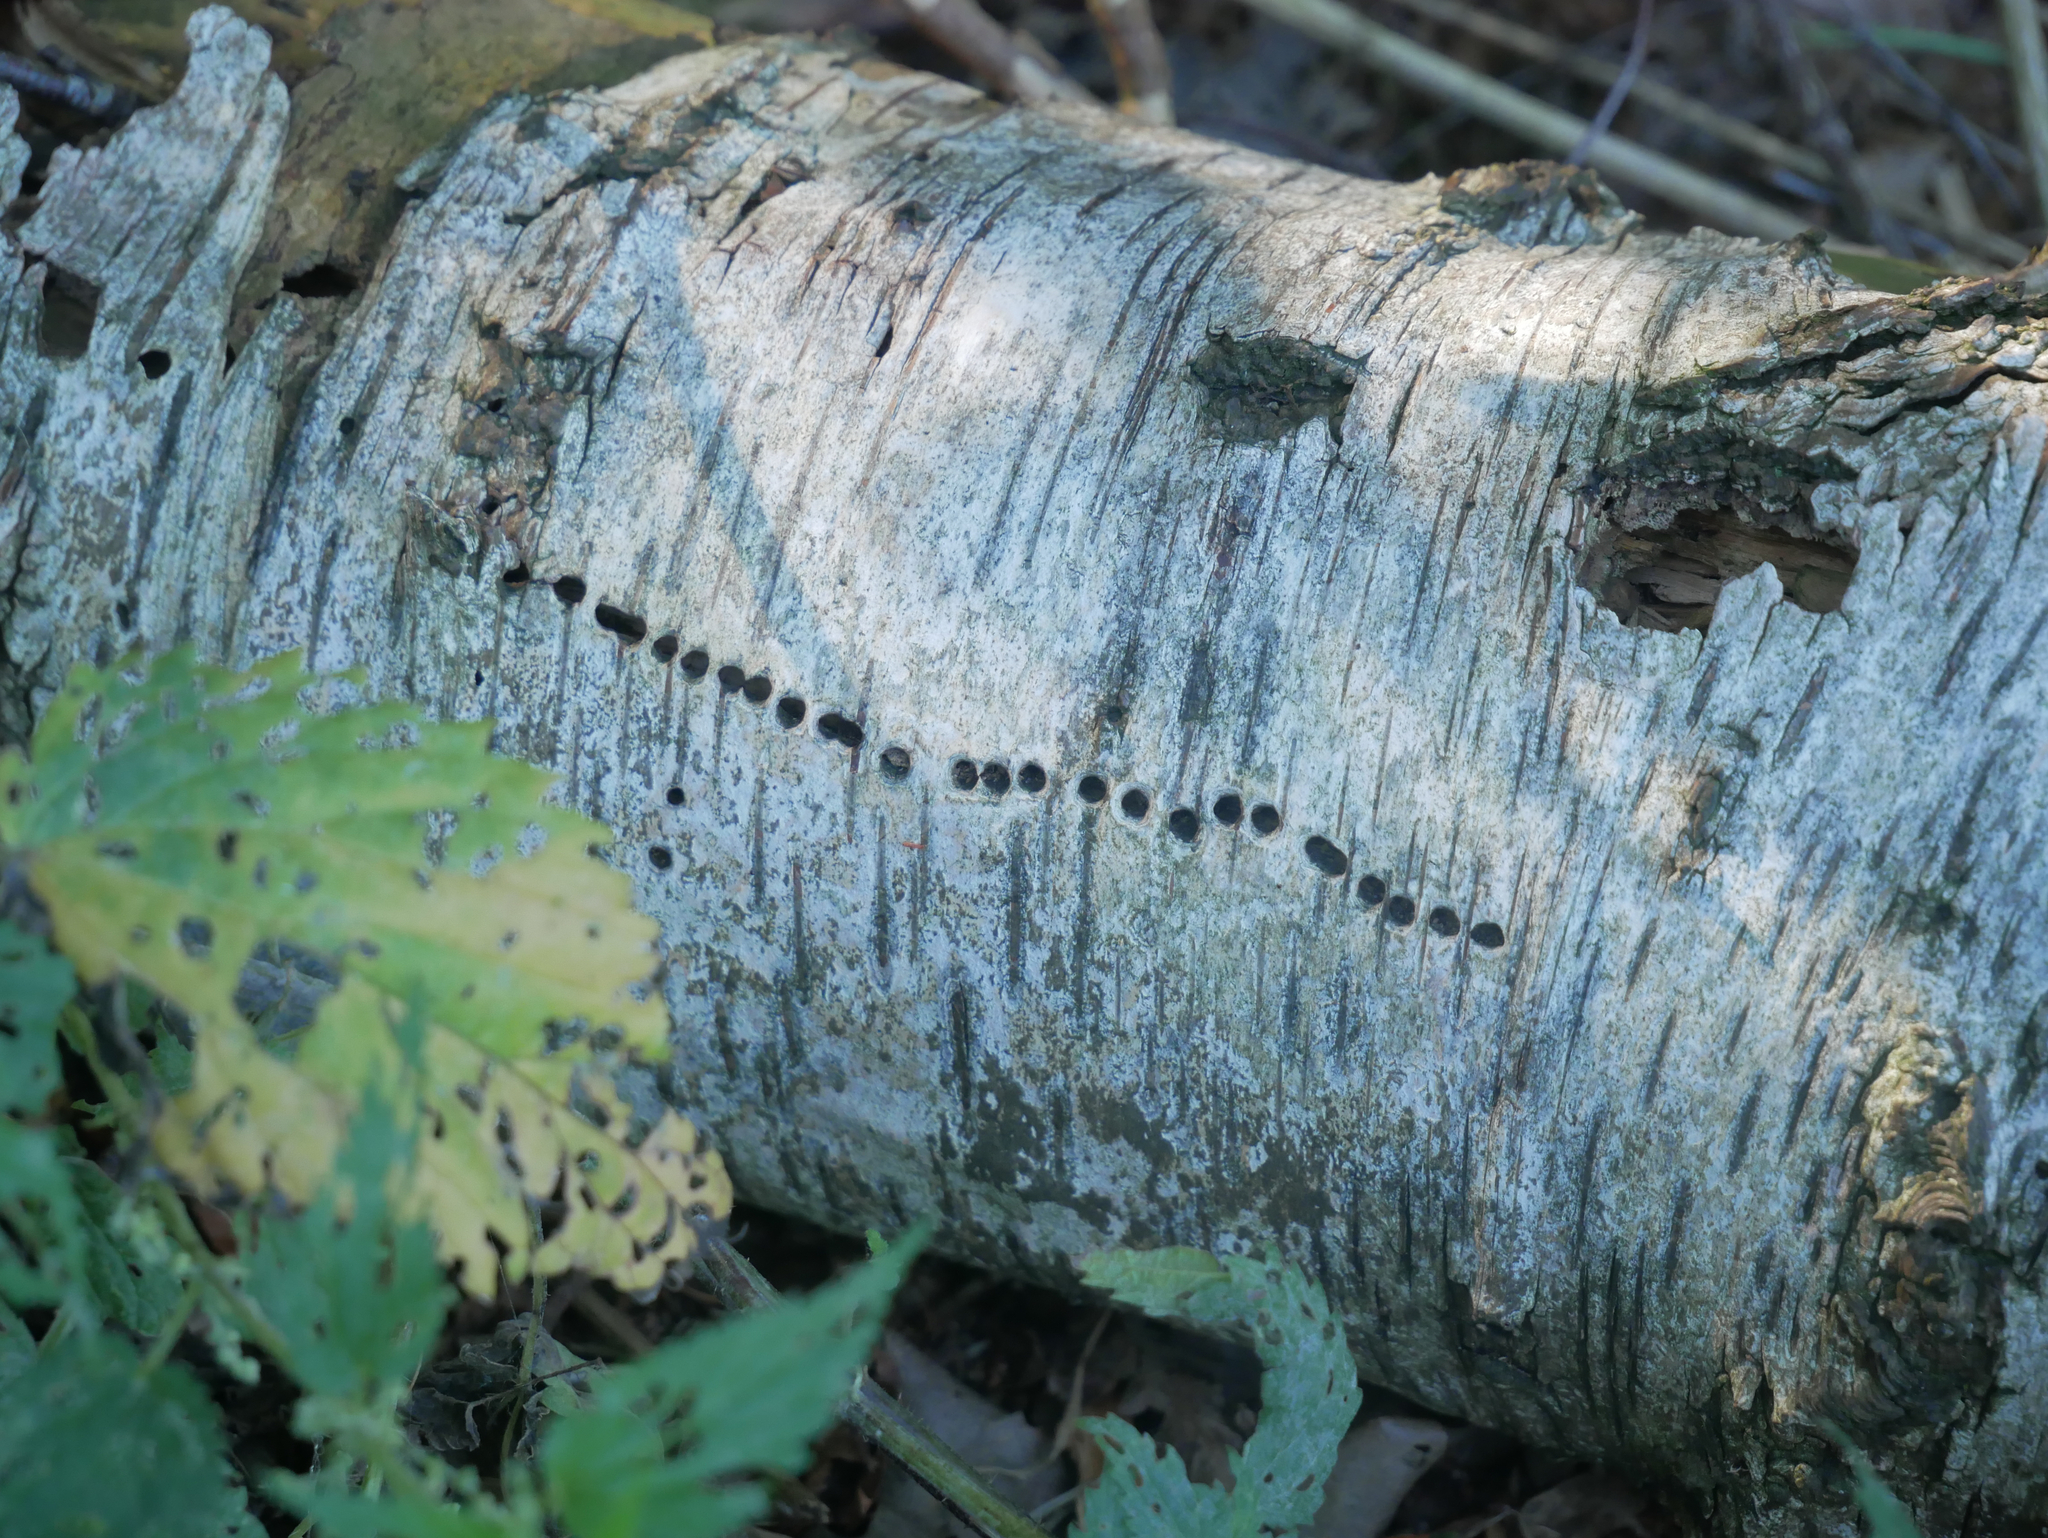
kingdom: Animalia
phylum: Arthropoda
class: Insecta
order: Coleoptera
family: Curculionidae
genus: Scolytus
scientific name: Scolytus ratzeburgii
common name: Birch bark beetle
